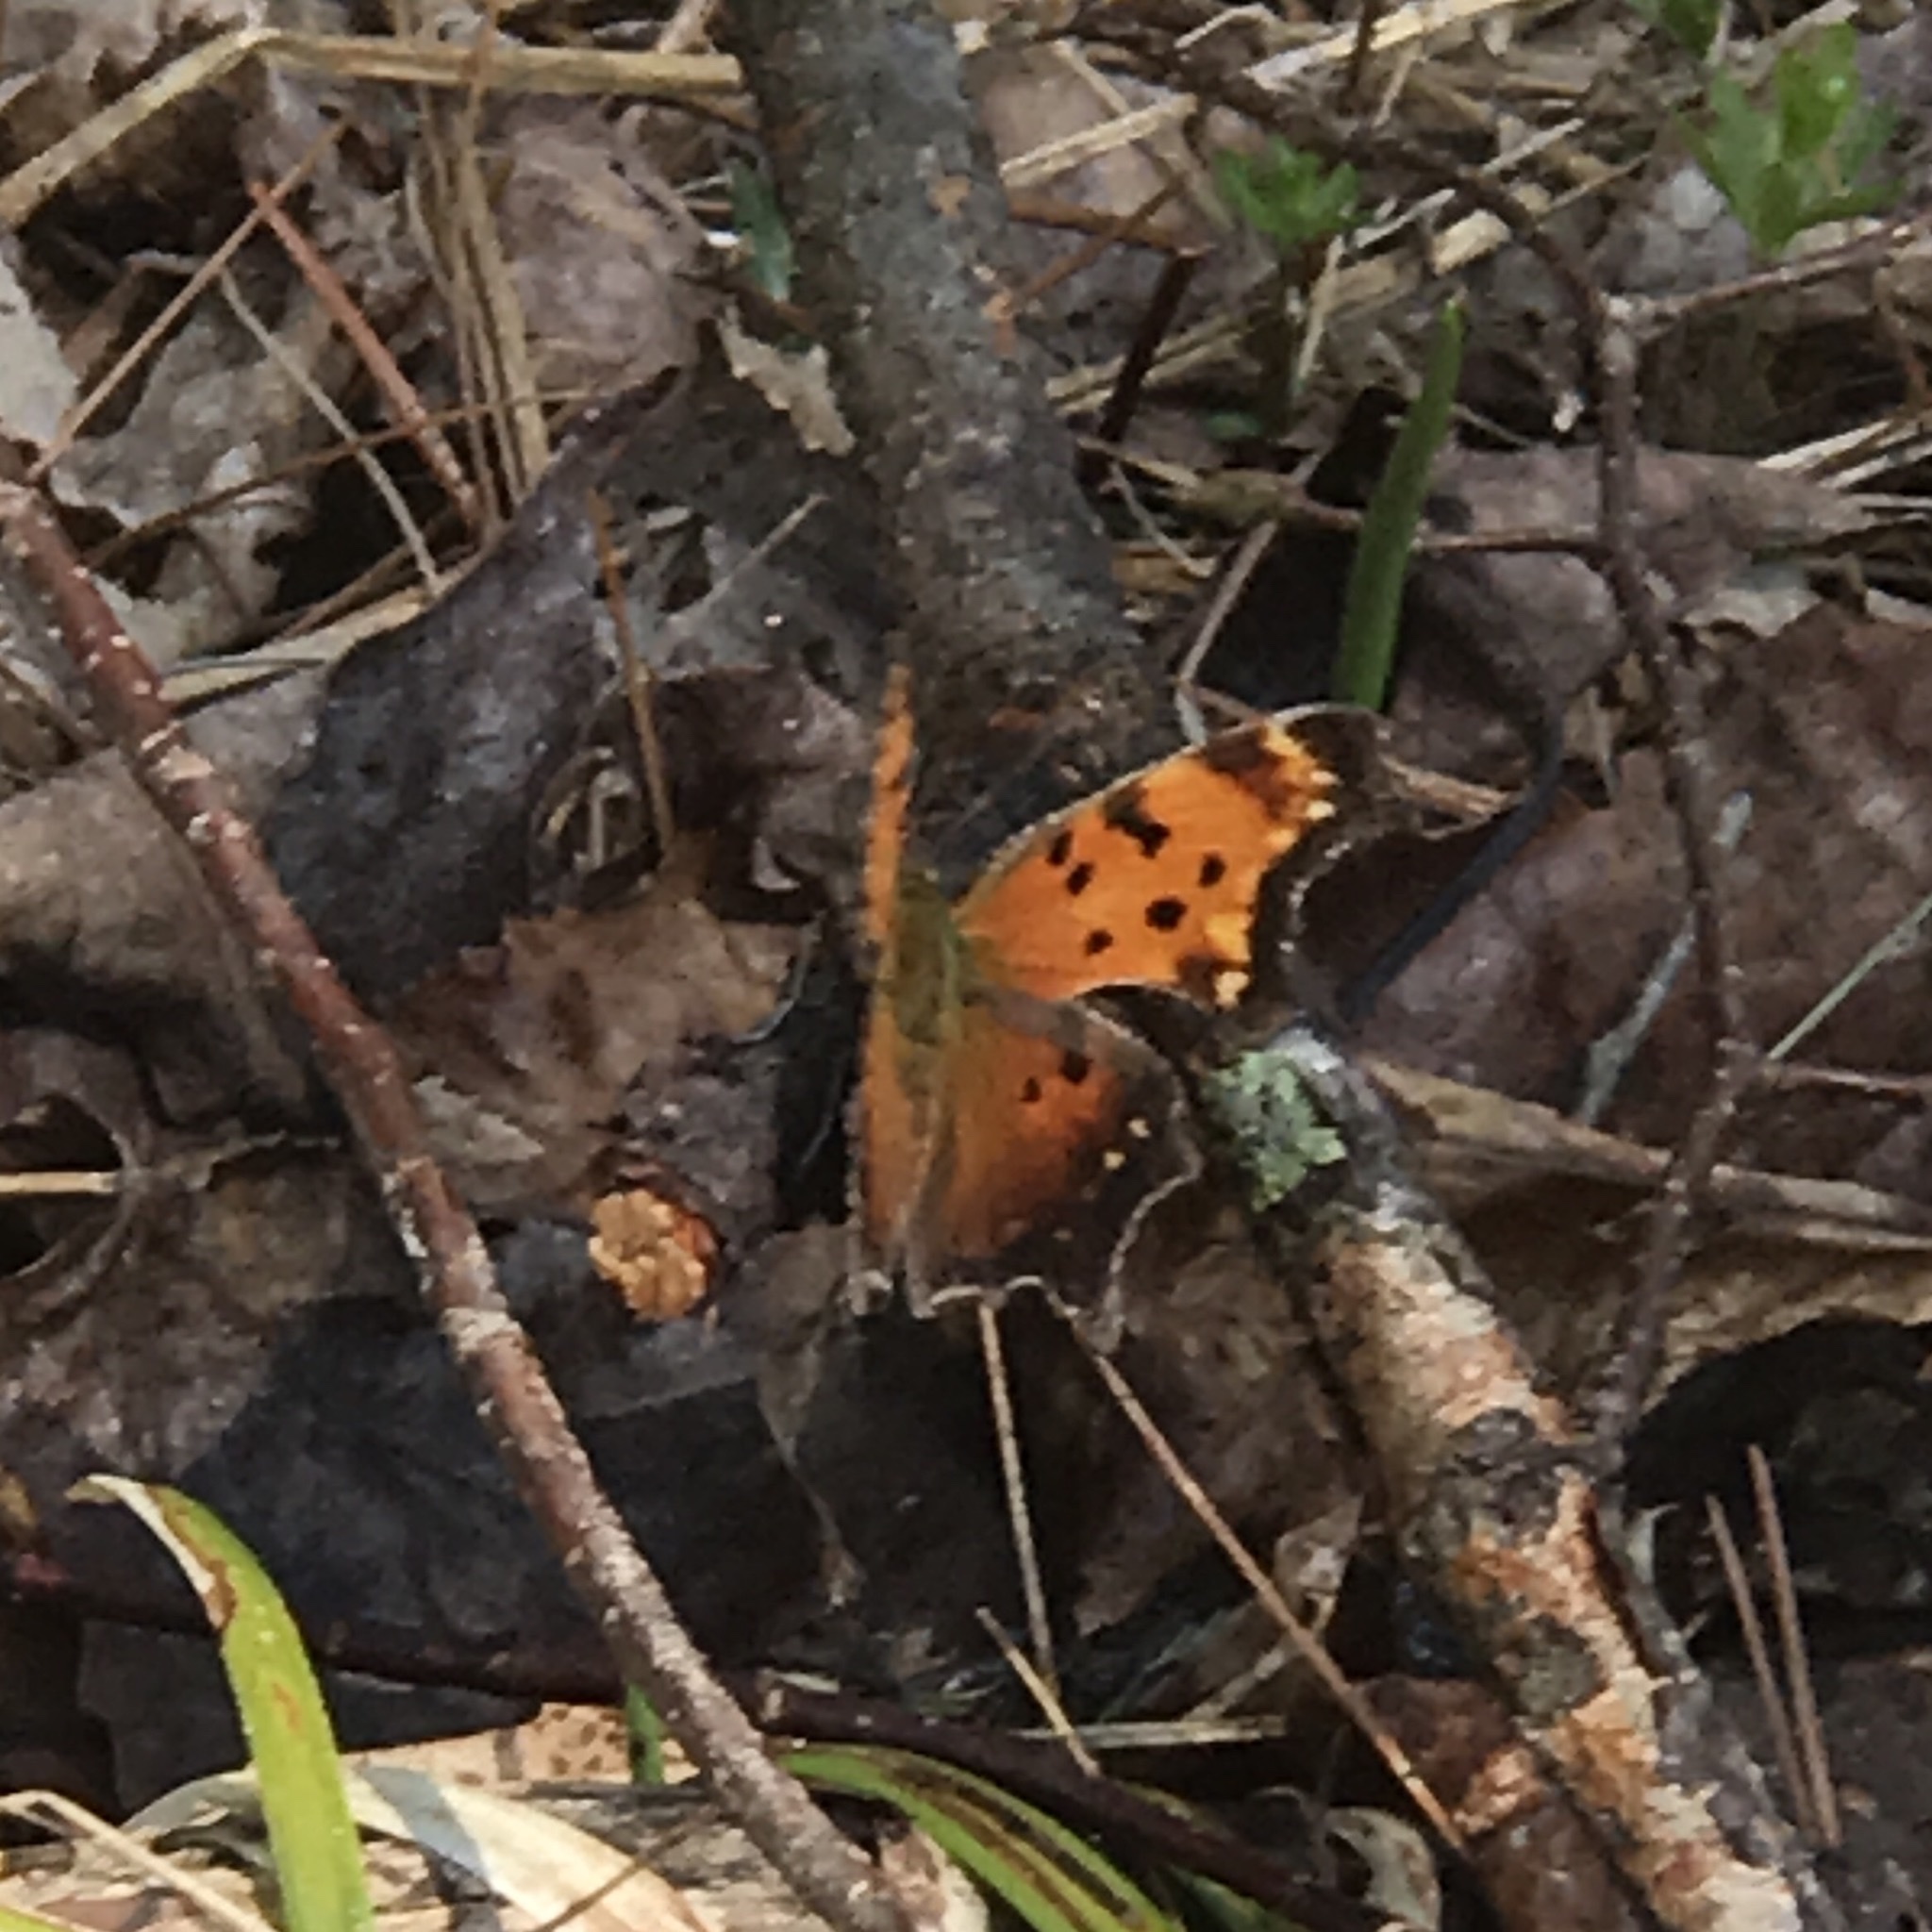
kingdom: Animalia
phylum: Arthropoda
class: Insecta
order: Lepidoptera
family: Nymphalidae
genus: Polygonia
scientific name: Polygonia progne
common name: Gray comma
